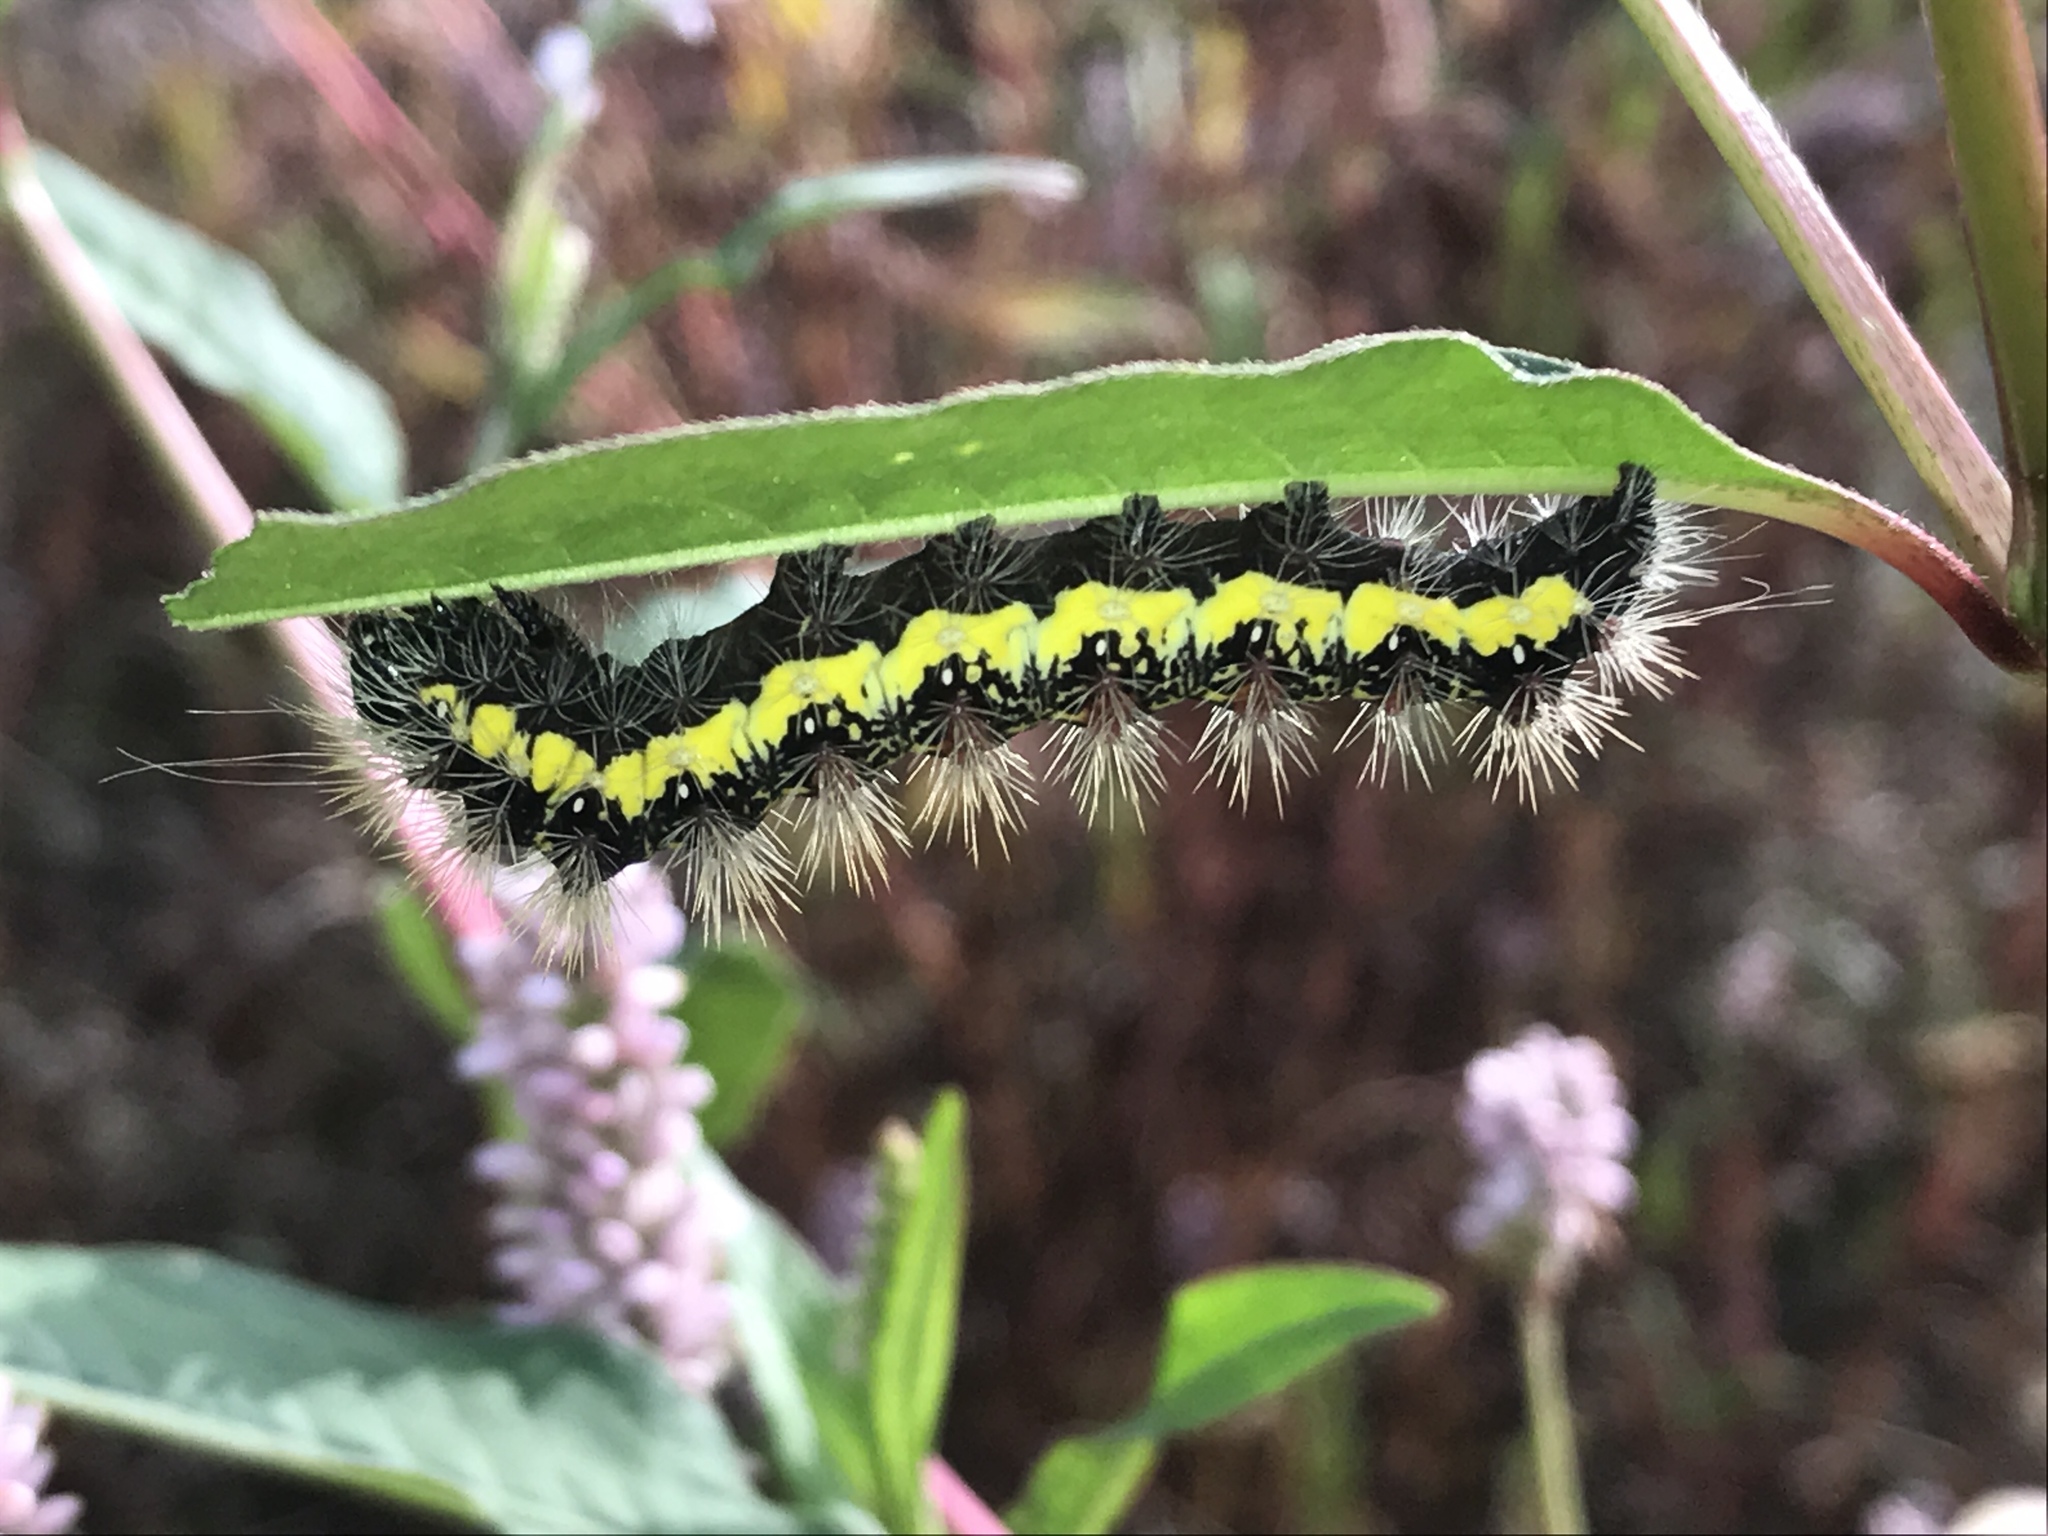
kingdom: Animalia
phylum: Arthropoda
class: Insecta
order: Lepidoptera
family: Noctuidae
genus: Acronicta
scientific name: Acronicta oblinita
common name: Smeared dagger
